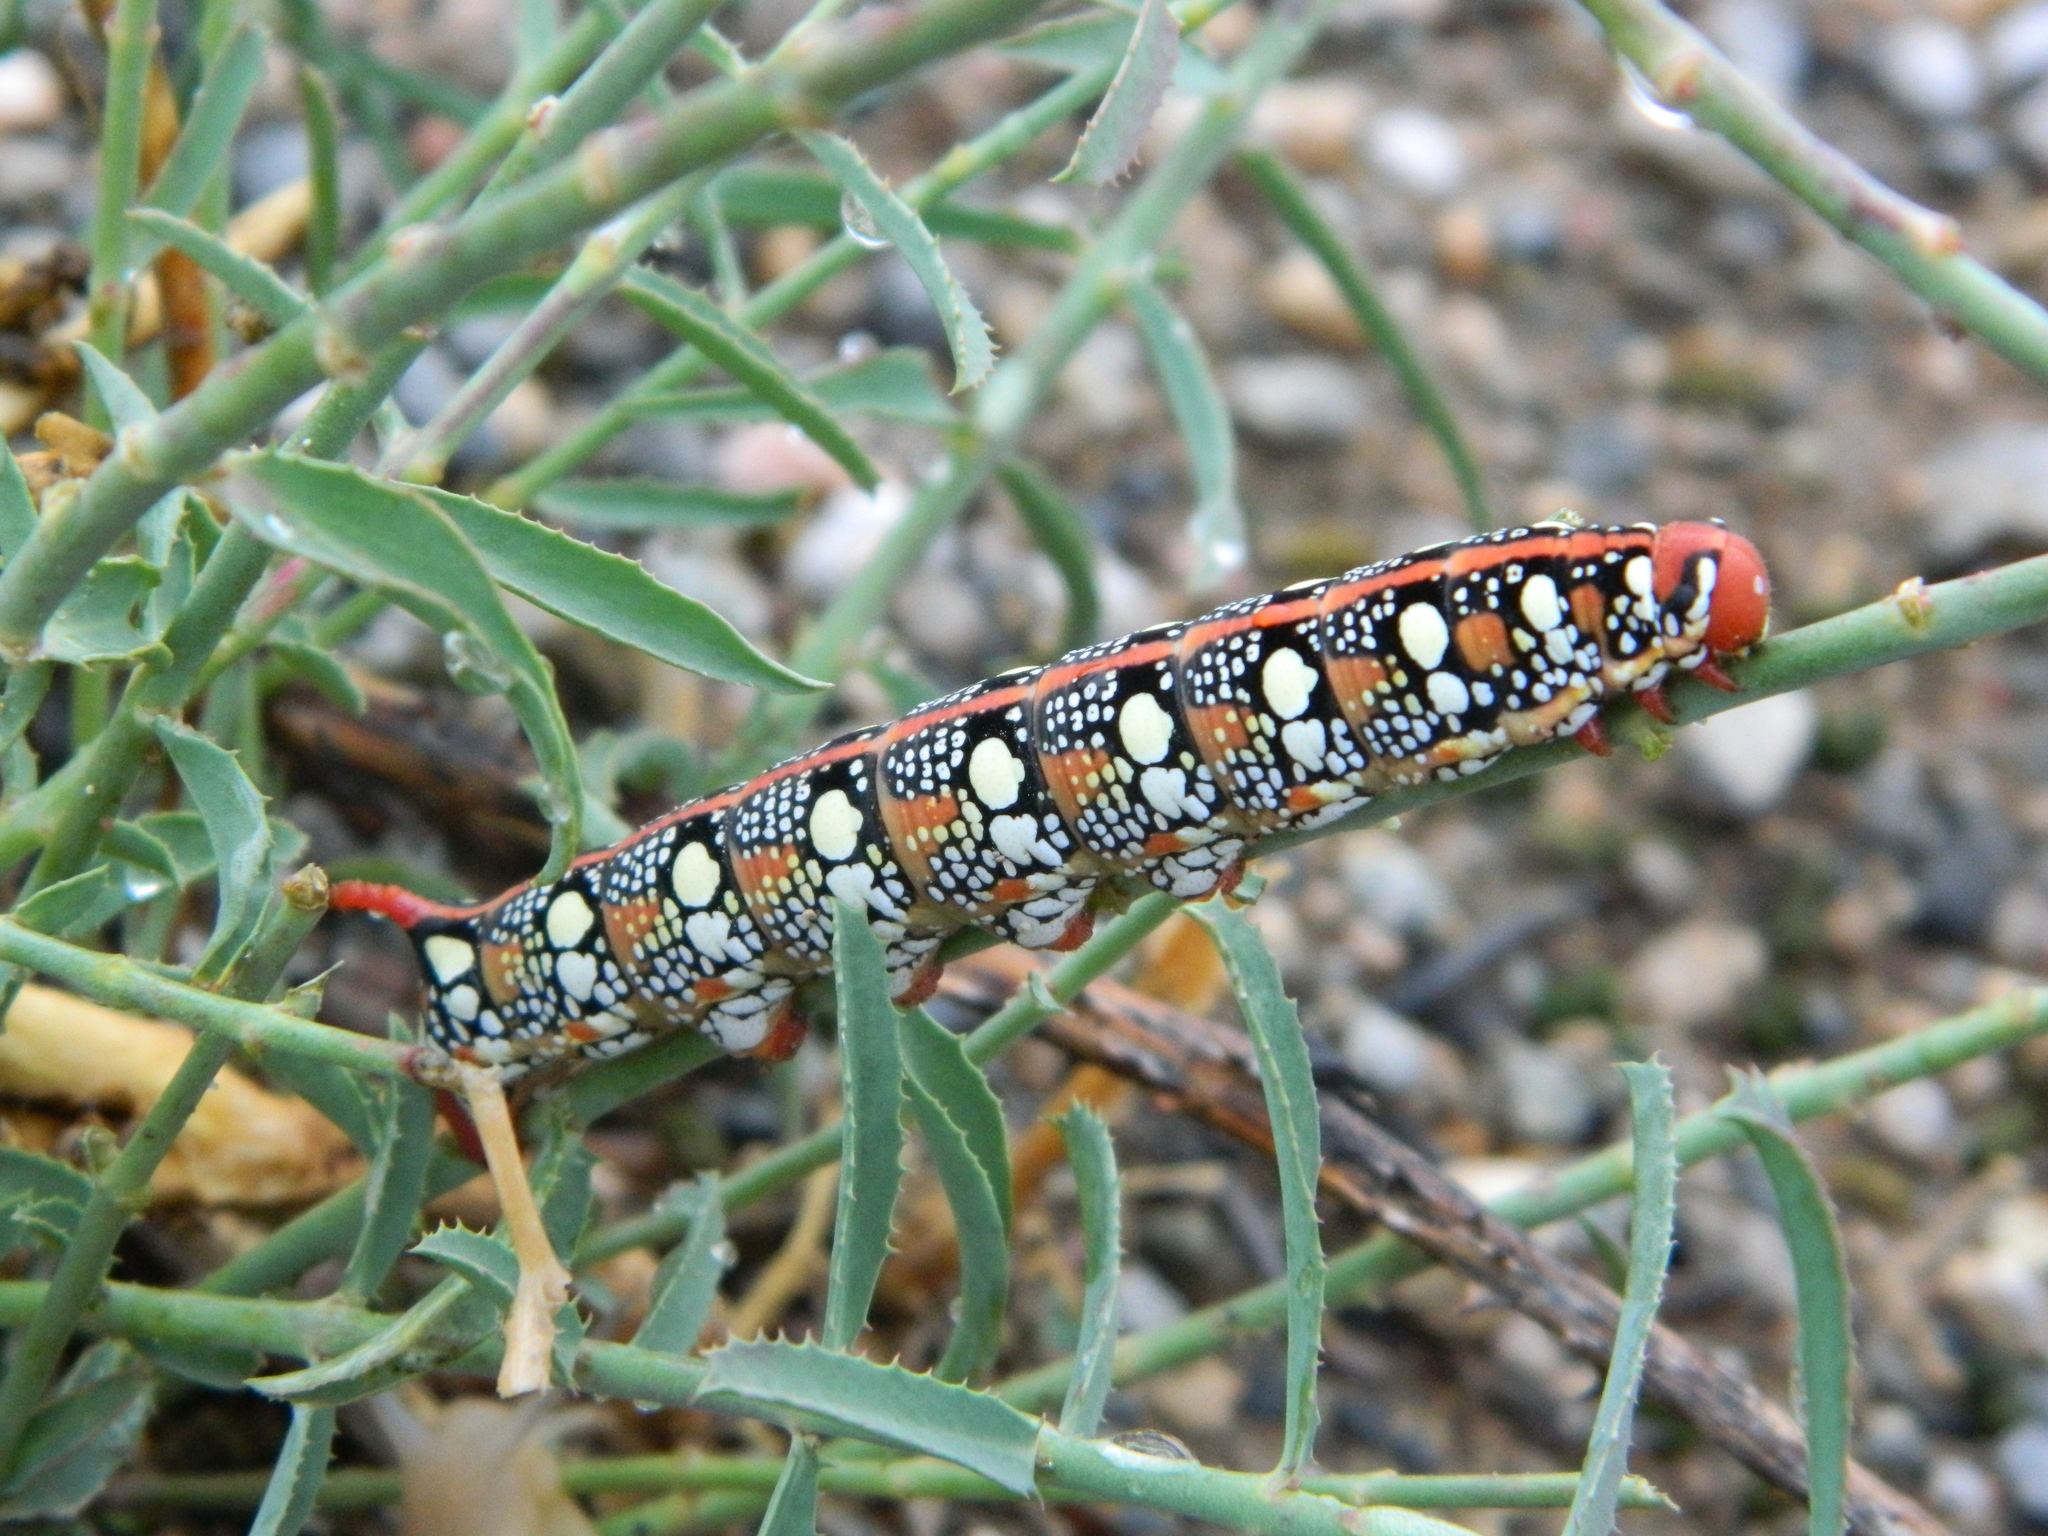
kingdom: Animalia
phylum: Arthropoda
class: Insecta
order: Lepidoptera
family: Sphingidae
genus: Hyles
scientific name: Hyles euphorbiae
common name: Spurge hawk-moth
